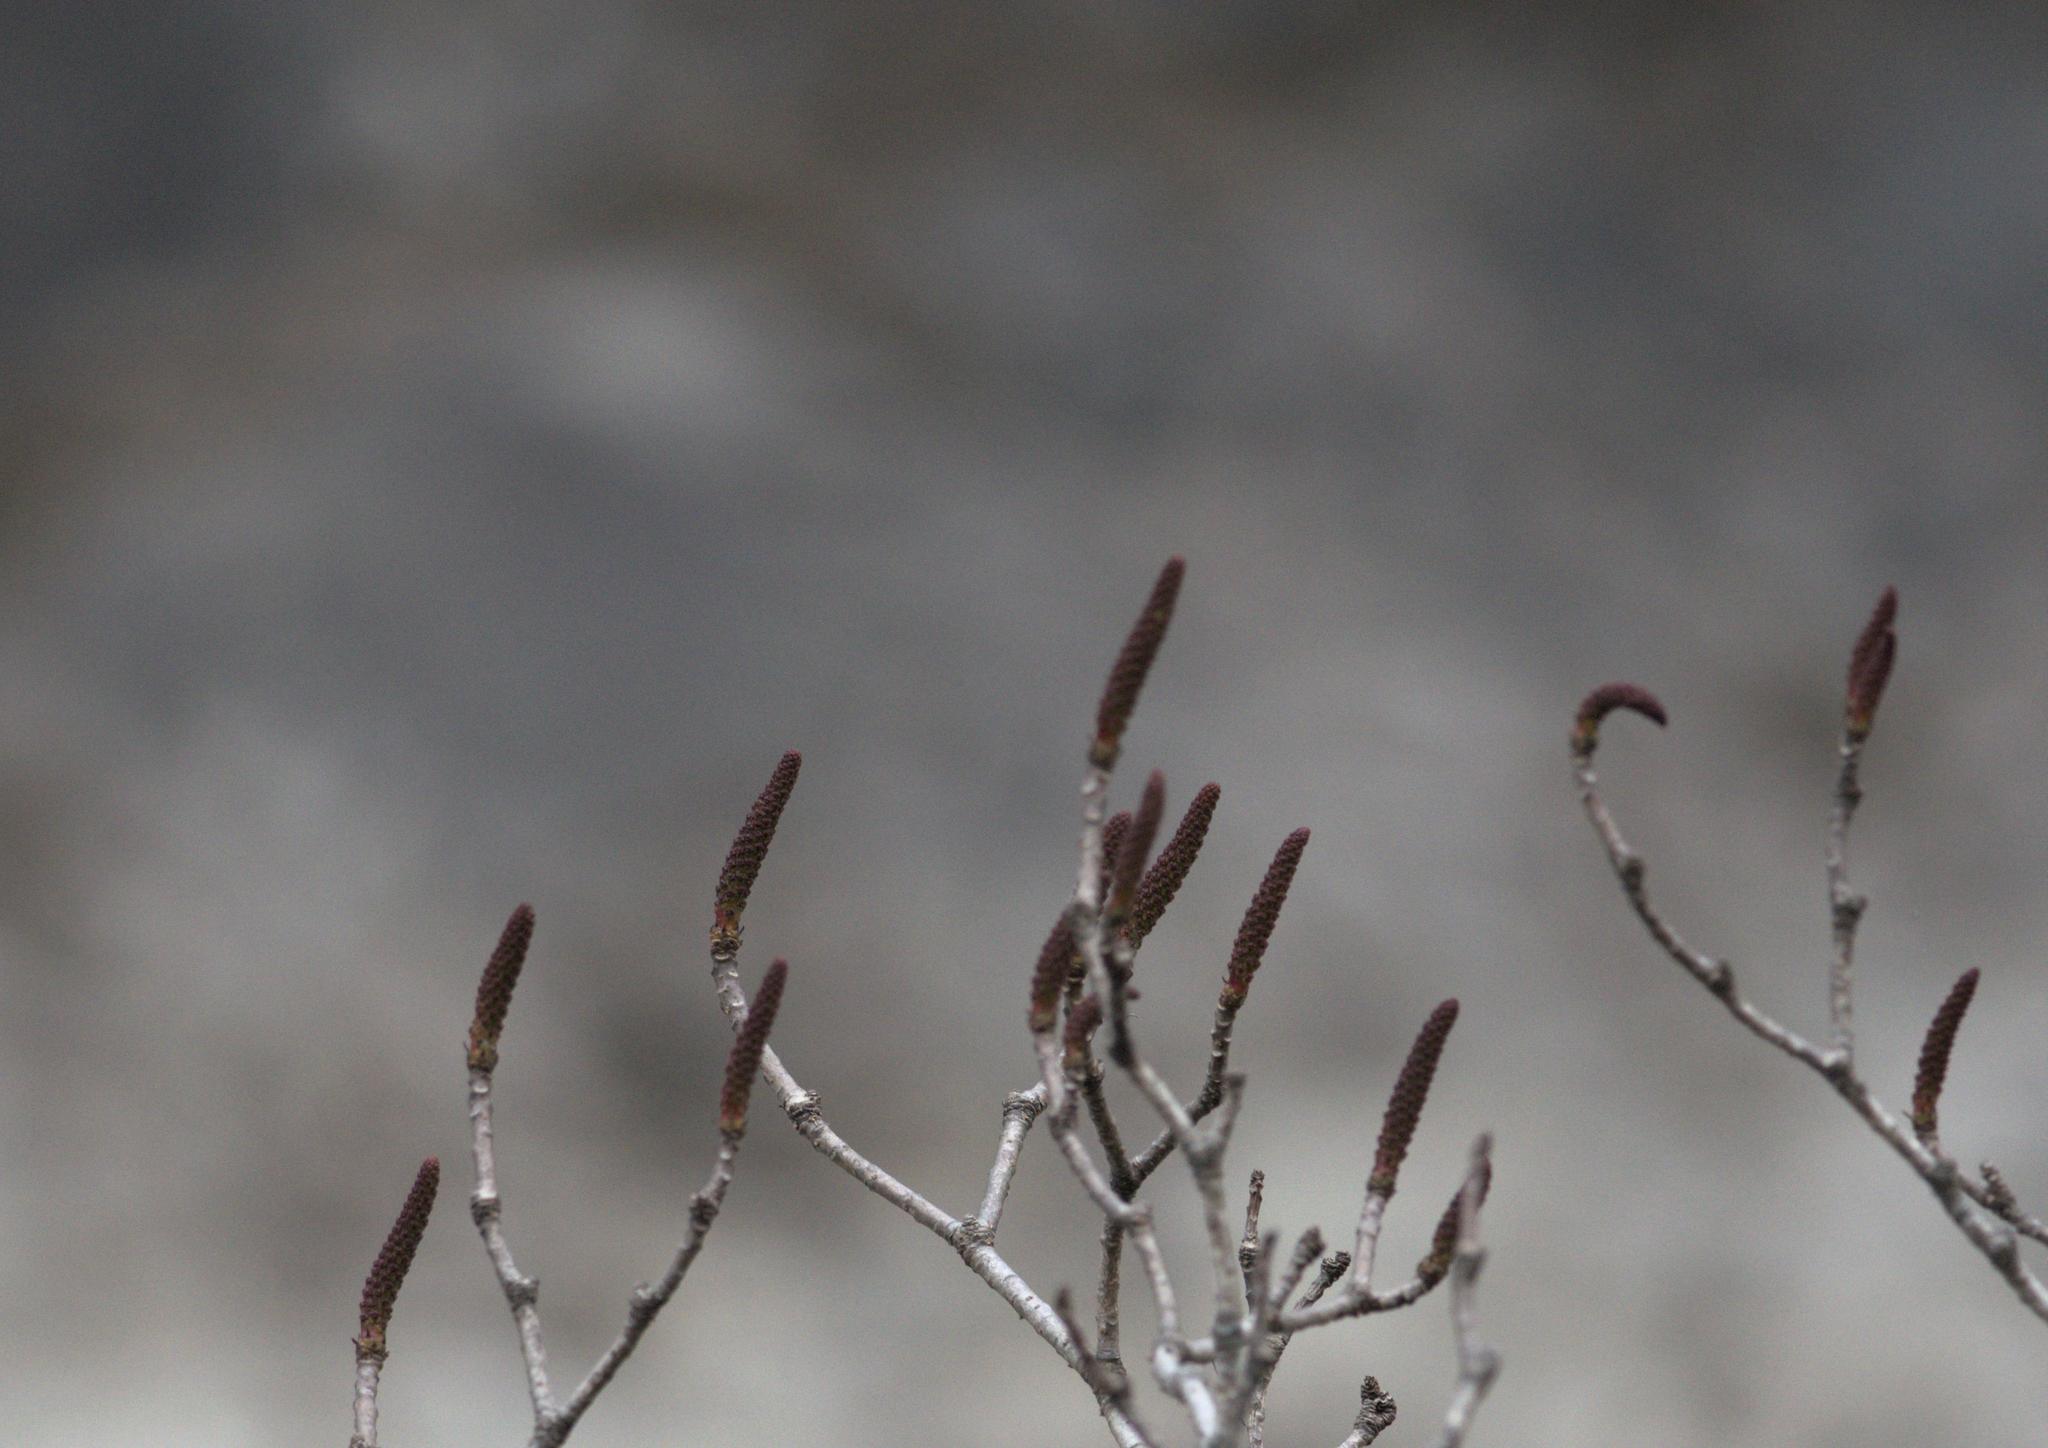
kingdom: Plantae
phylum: Tracheophyta
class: Magnoliopsida
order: Malpighiales
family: Euphorbiaceae
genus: Falconeria
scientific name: Falconeria insignis
